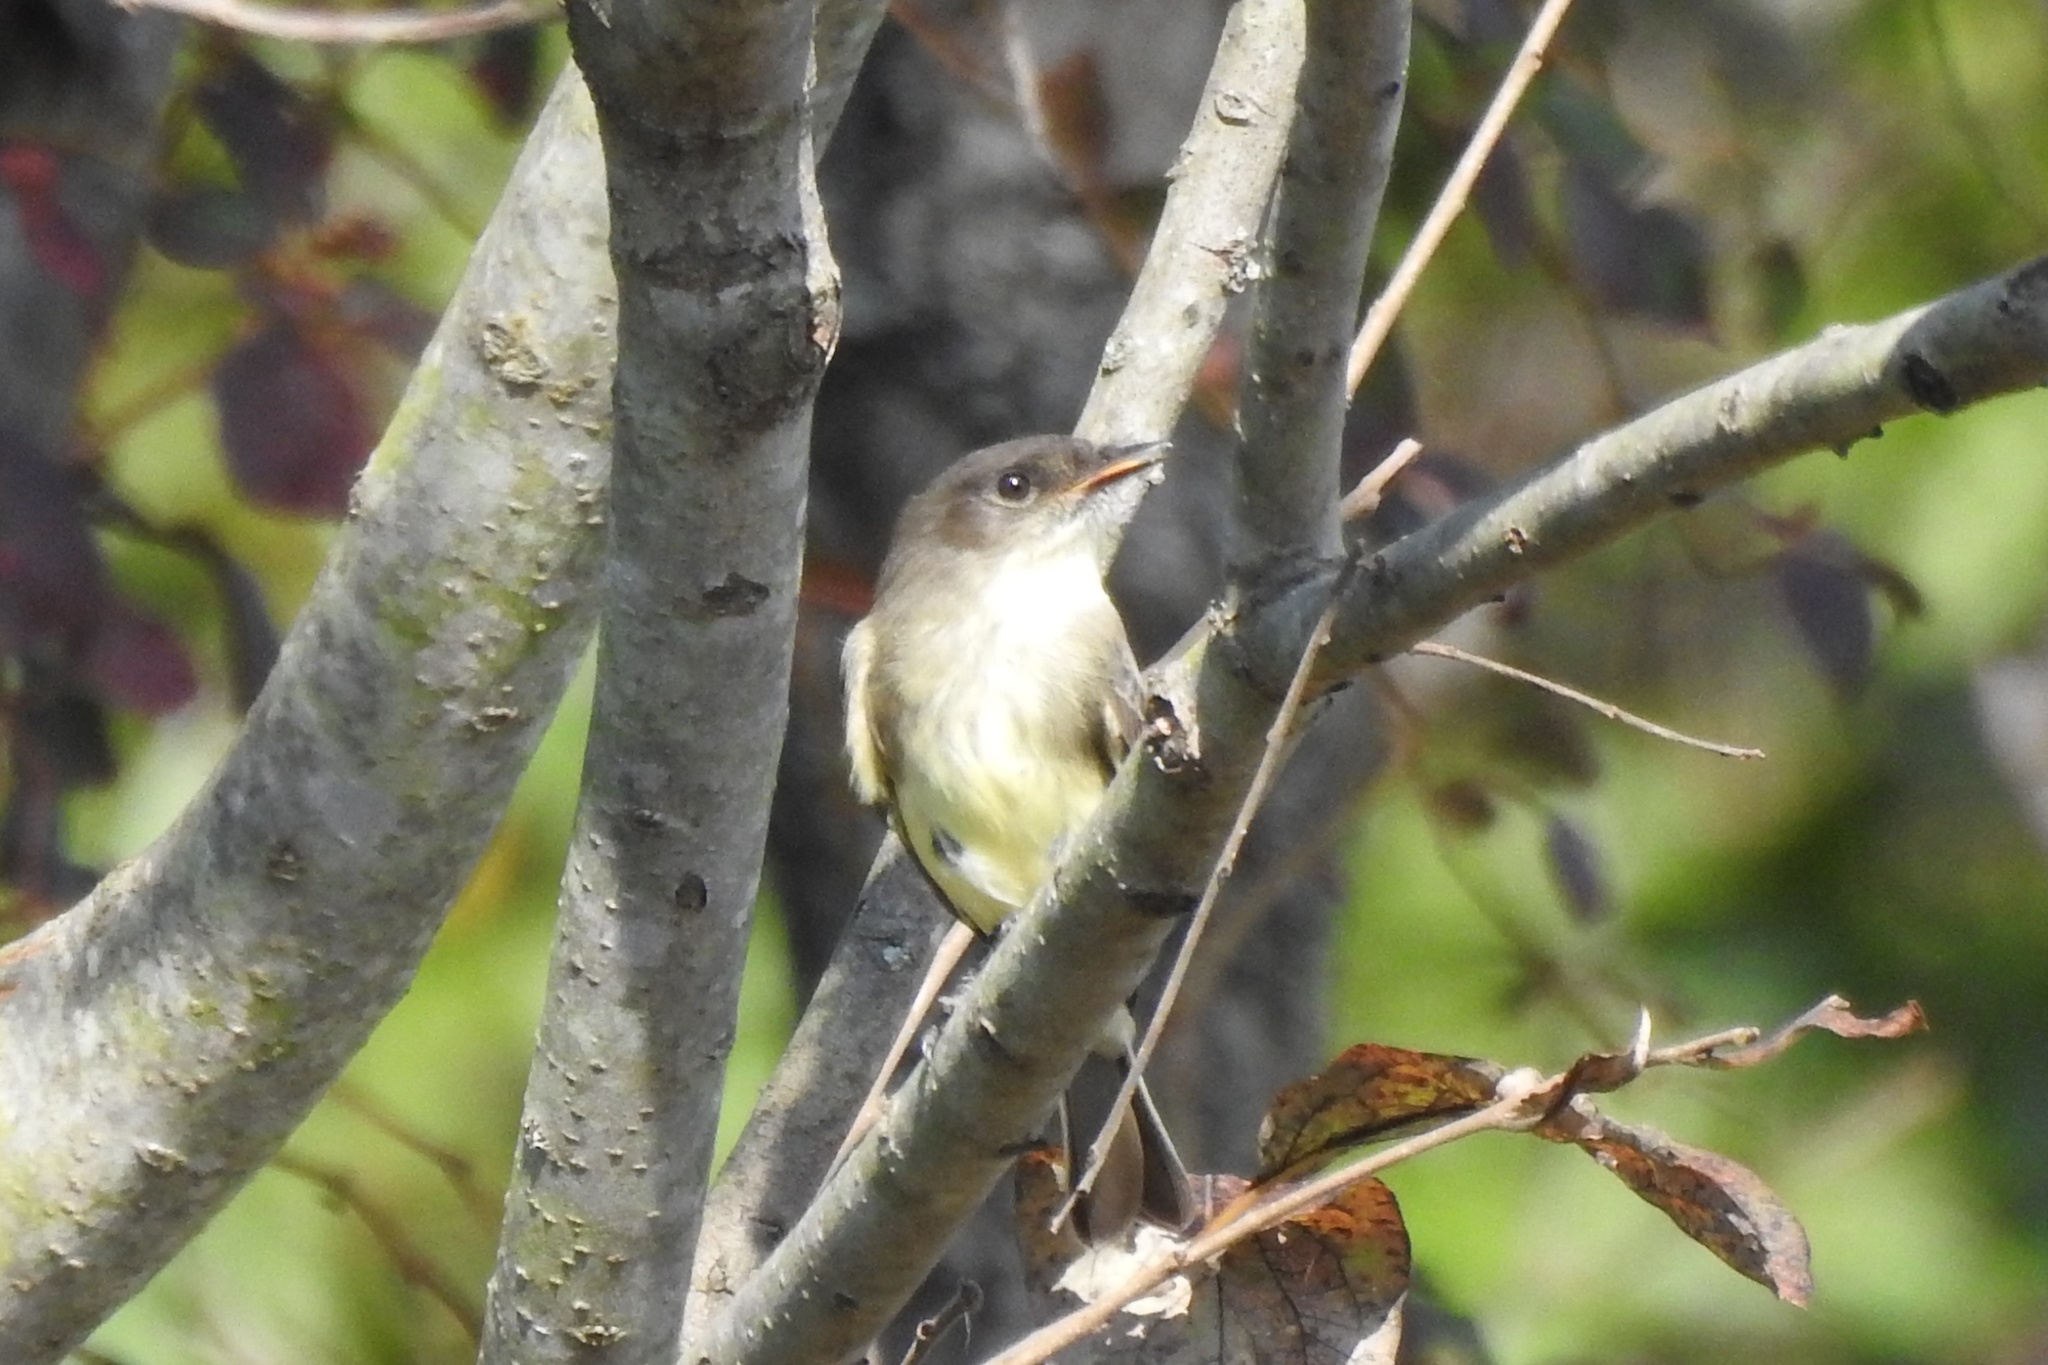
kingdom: Animalia
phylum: Chordata
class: Aves
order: Passeriformes
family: Tyrannidae
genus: Sayornis
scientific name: Sayornis phoebe
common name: Eastern phoebe
